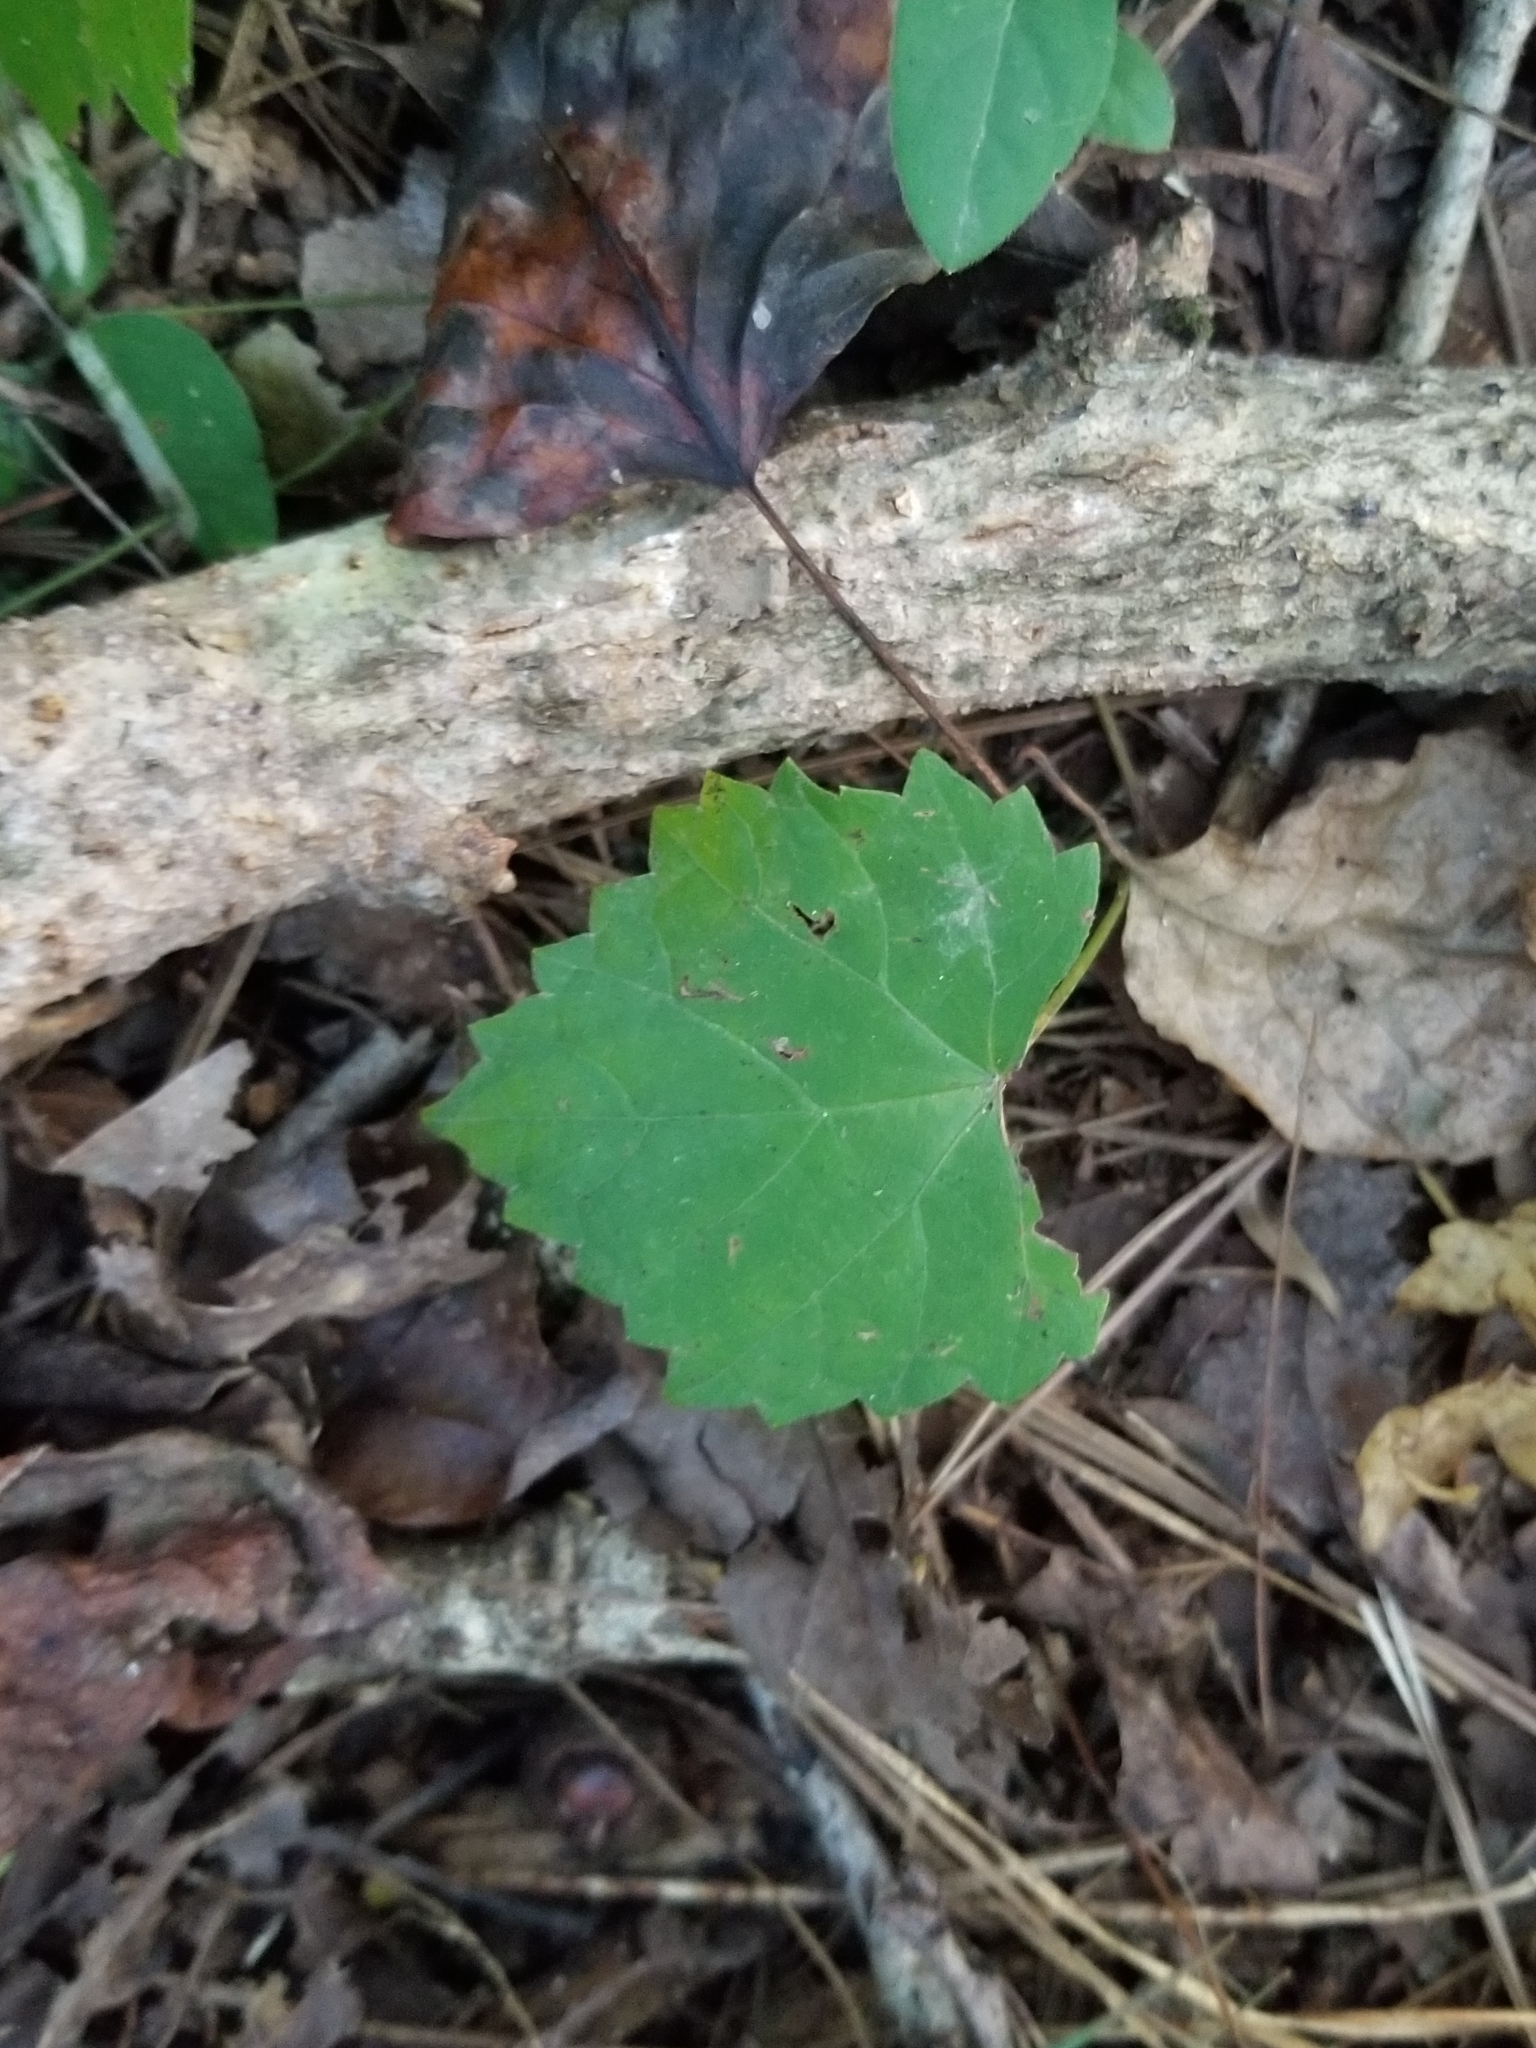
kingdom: Plantae
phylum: Tracheophyta
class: Magnoliopsida
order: Vitales
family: Vitaceae
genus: Vitis
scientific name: Vitis rotundifolia
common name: Muscadine grape
